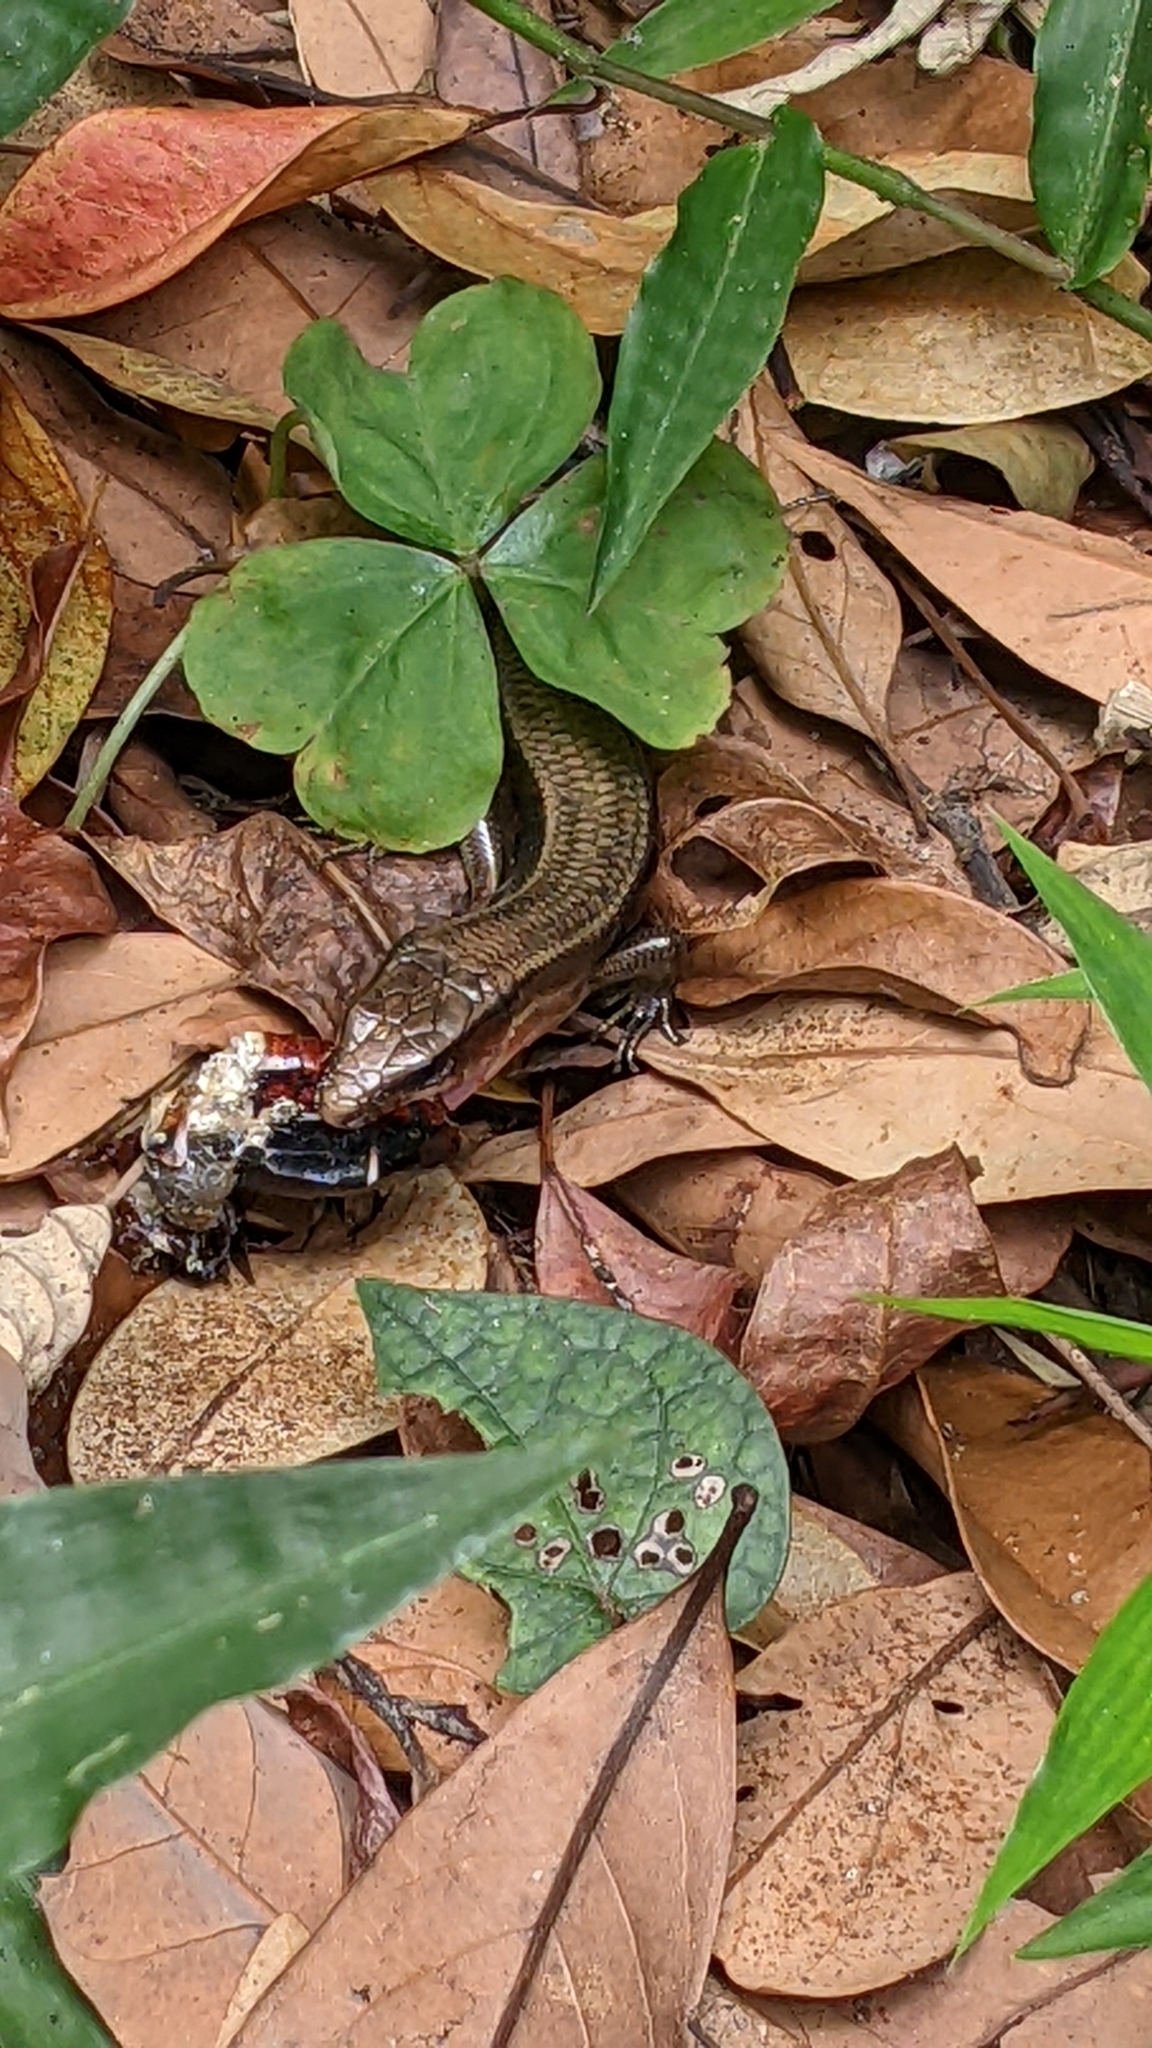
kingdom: Animalia
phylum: Chordata
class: Squamata
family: Scincidae
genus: Plestiodon
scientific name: Plestiodon elegans
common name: Shanghai elegant skink
